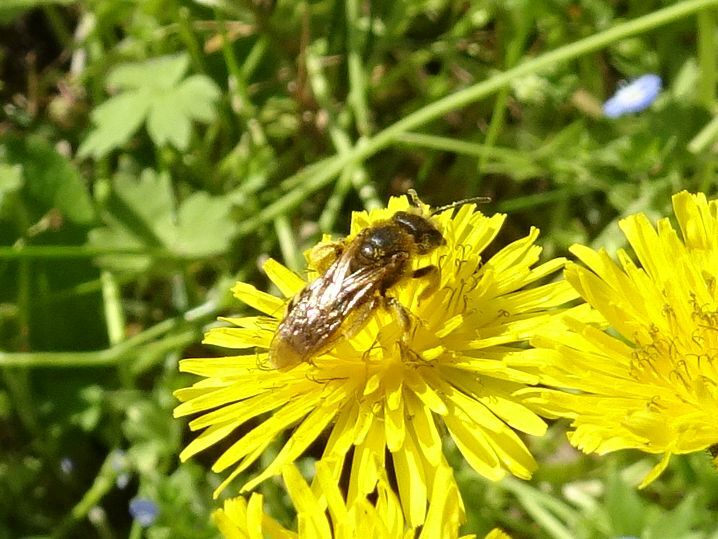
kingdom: Animalia
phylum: Arthropoda
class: Insecta
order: Hymenoptera
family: Halictidae
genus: Halictus
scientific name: Halictus scabiosae
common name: Great banded furrow bee
